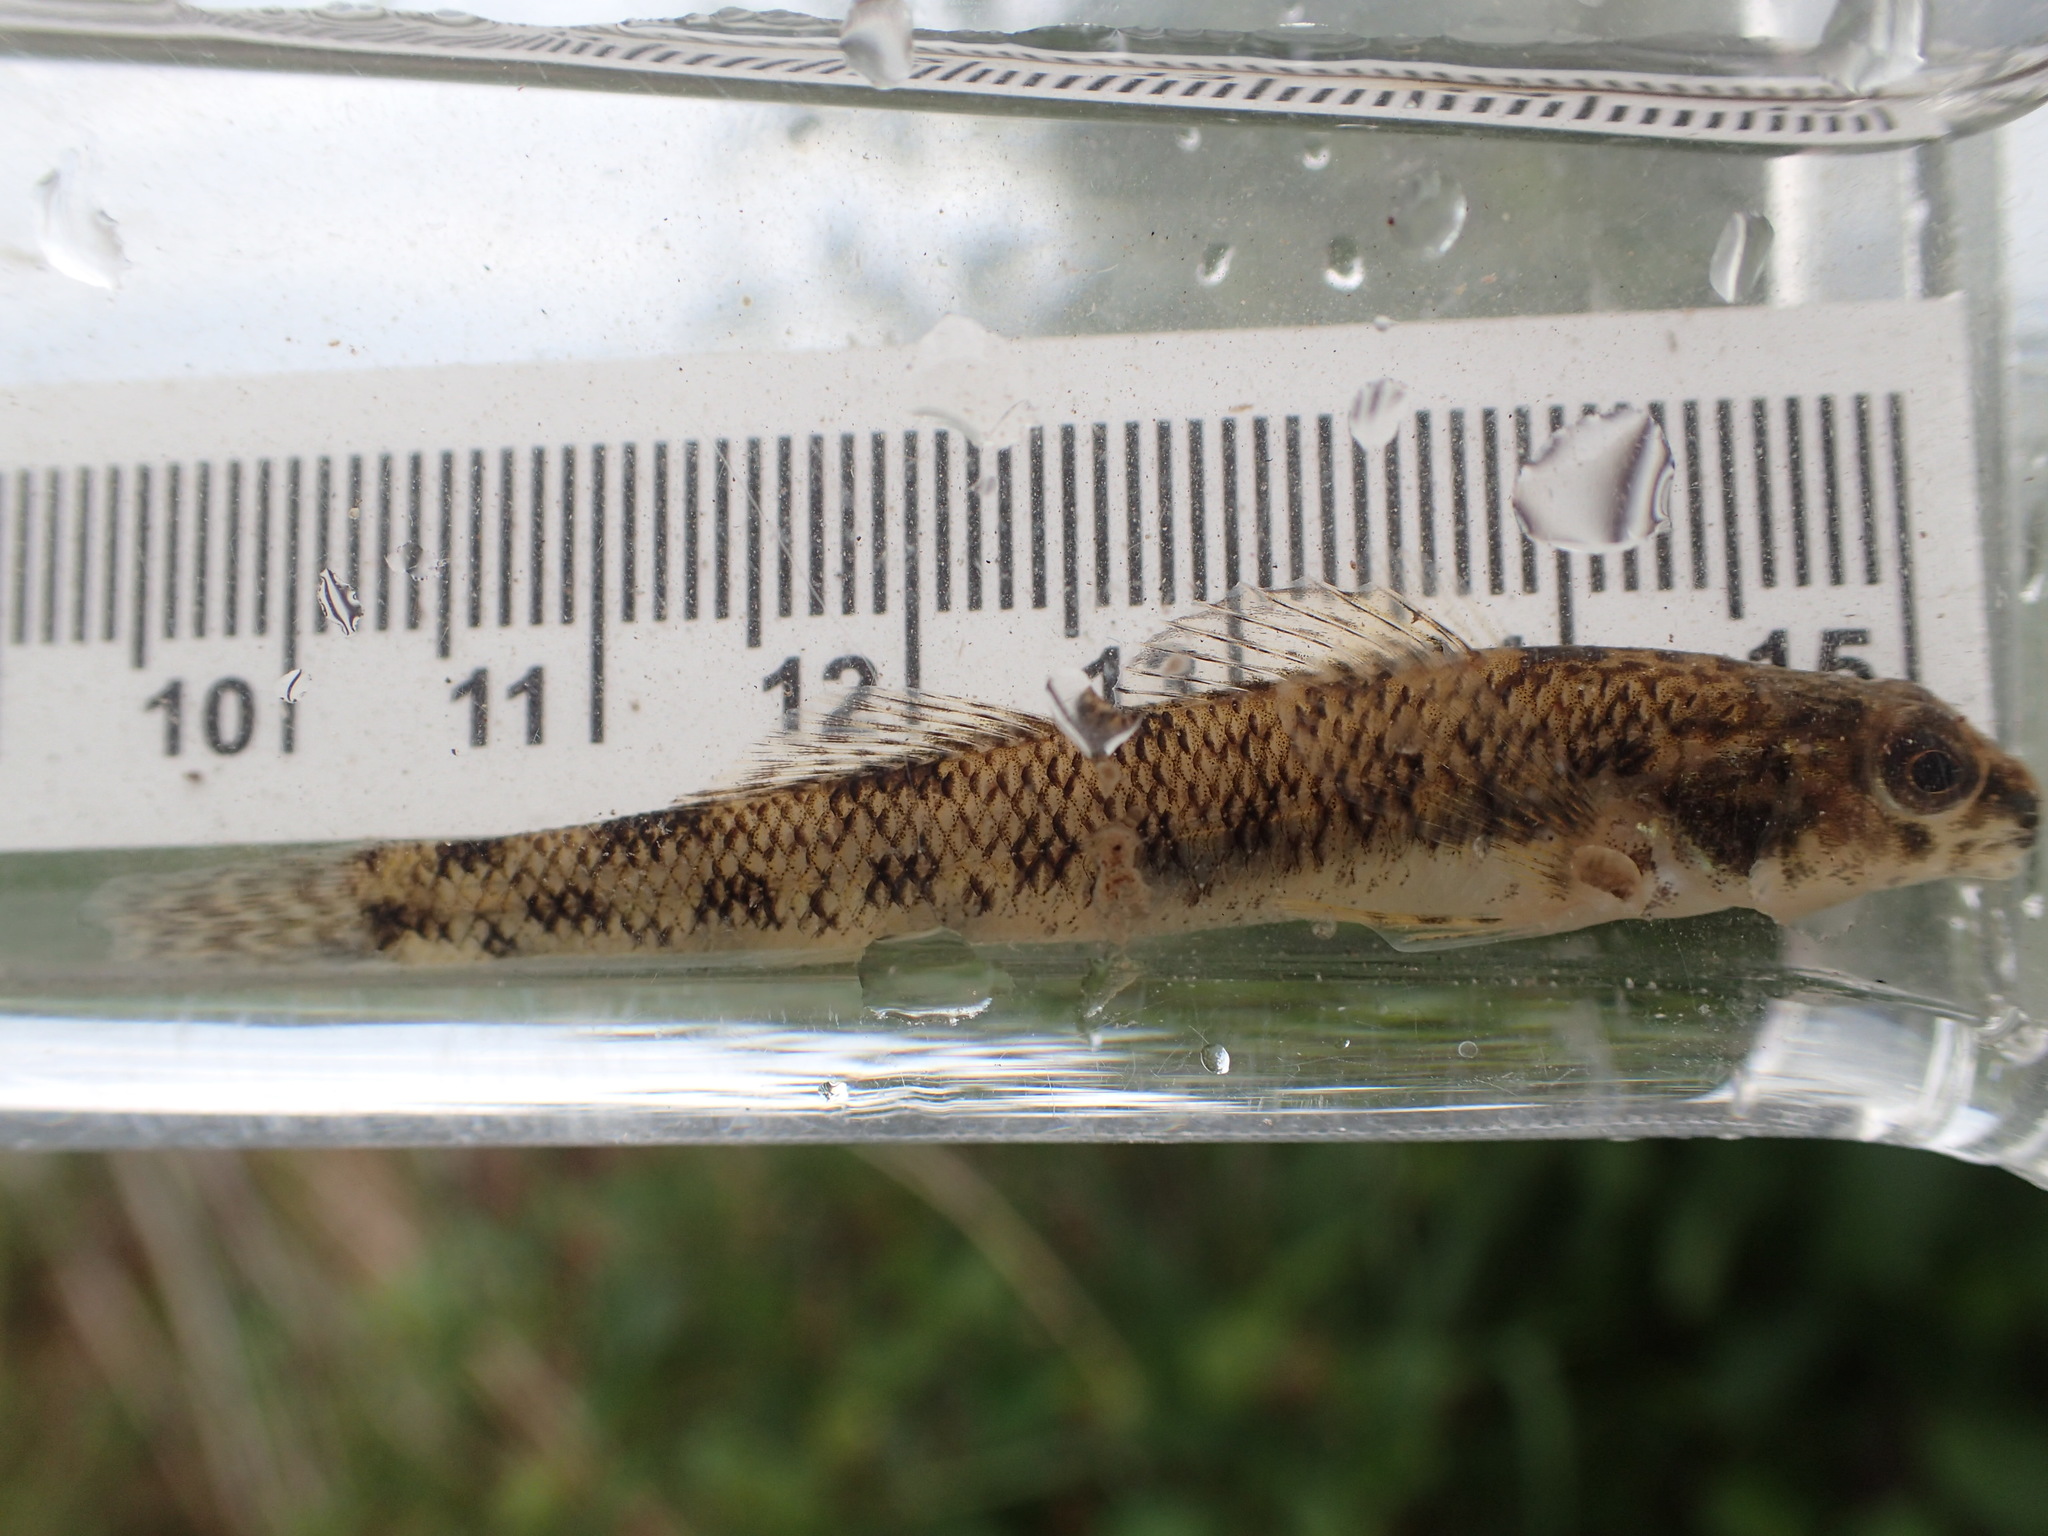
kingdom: Animalia
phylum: Chordata
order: Perciformes
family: Percidae
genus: Etheostoma
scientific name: Etheostoma nigrum
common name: Johnny darter
